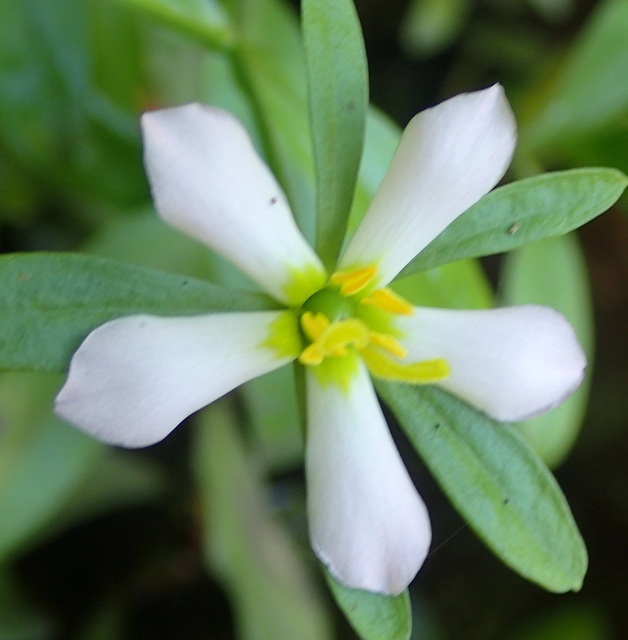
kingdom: Plantae
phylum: Tracheophyta
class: Magnoliopsida
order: Gentianales
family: Gentianaceae
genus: Sabatia
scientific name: Sabatia calycina
